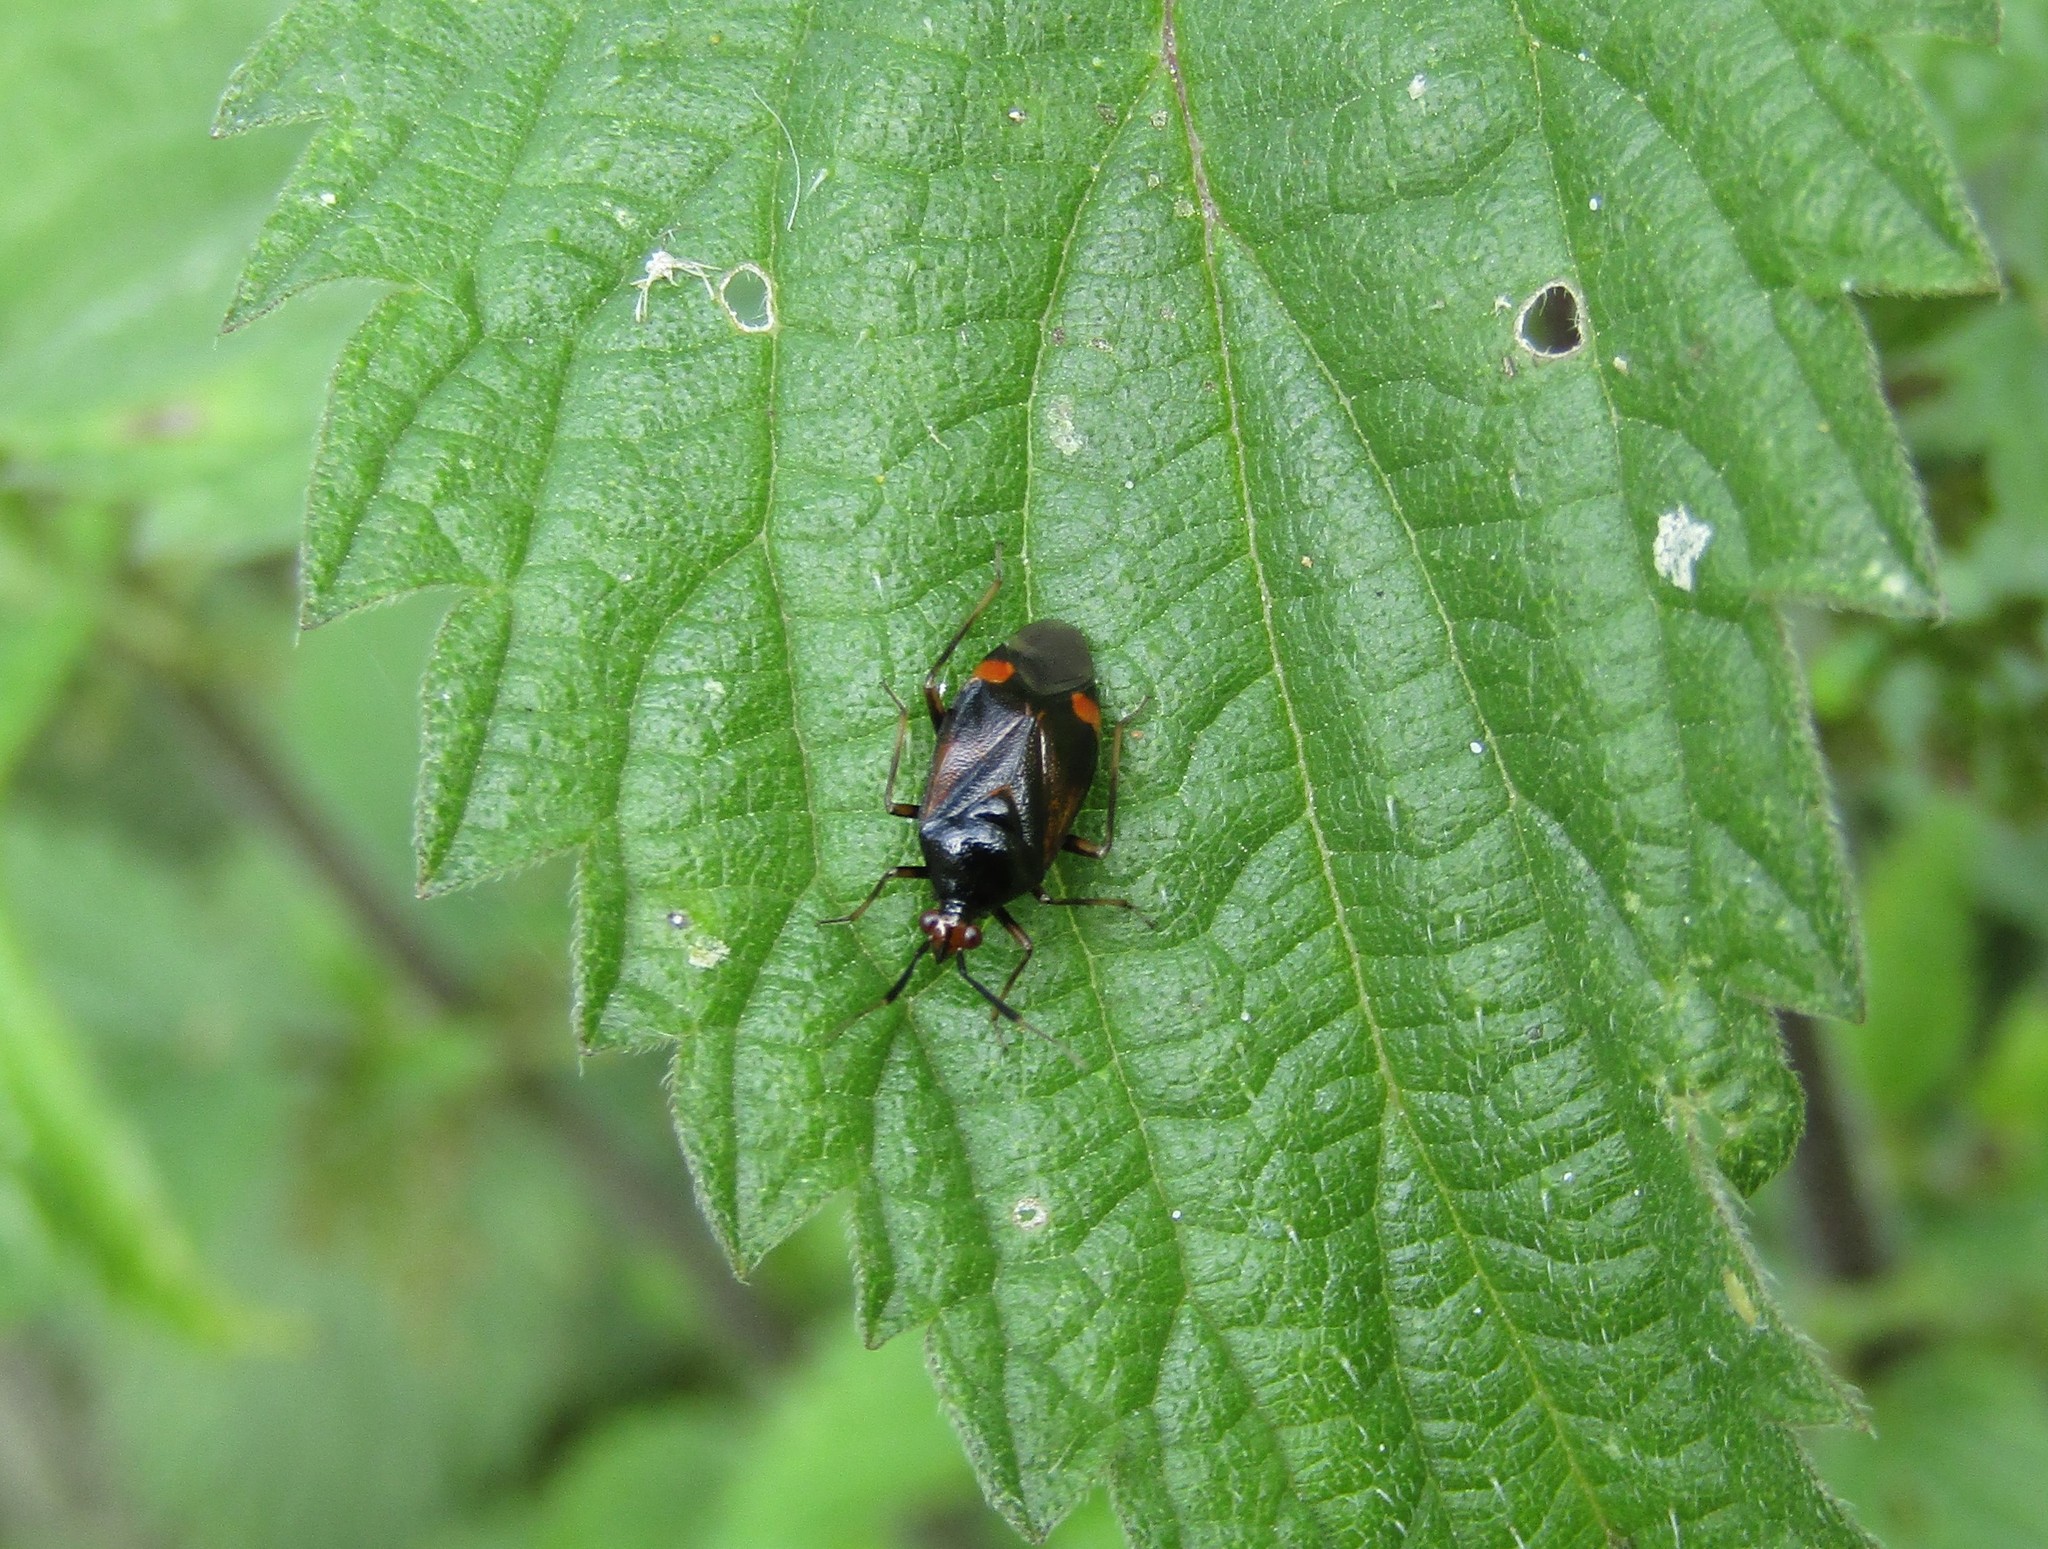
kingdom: Animalia
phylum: Arthropoda
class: Insecta
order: Hemiptera
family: Miridae
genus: Deraeocoris
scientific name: Deraeocoris ruber
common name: Plant bug
